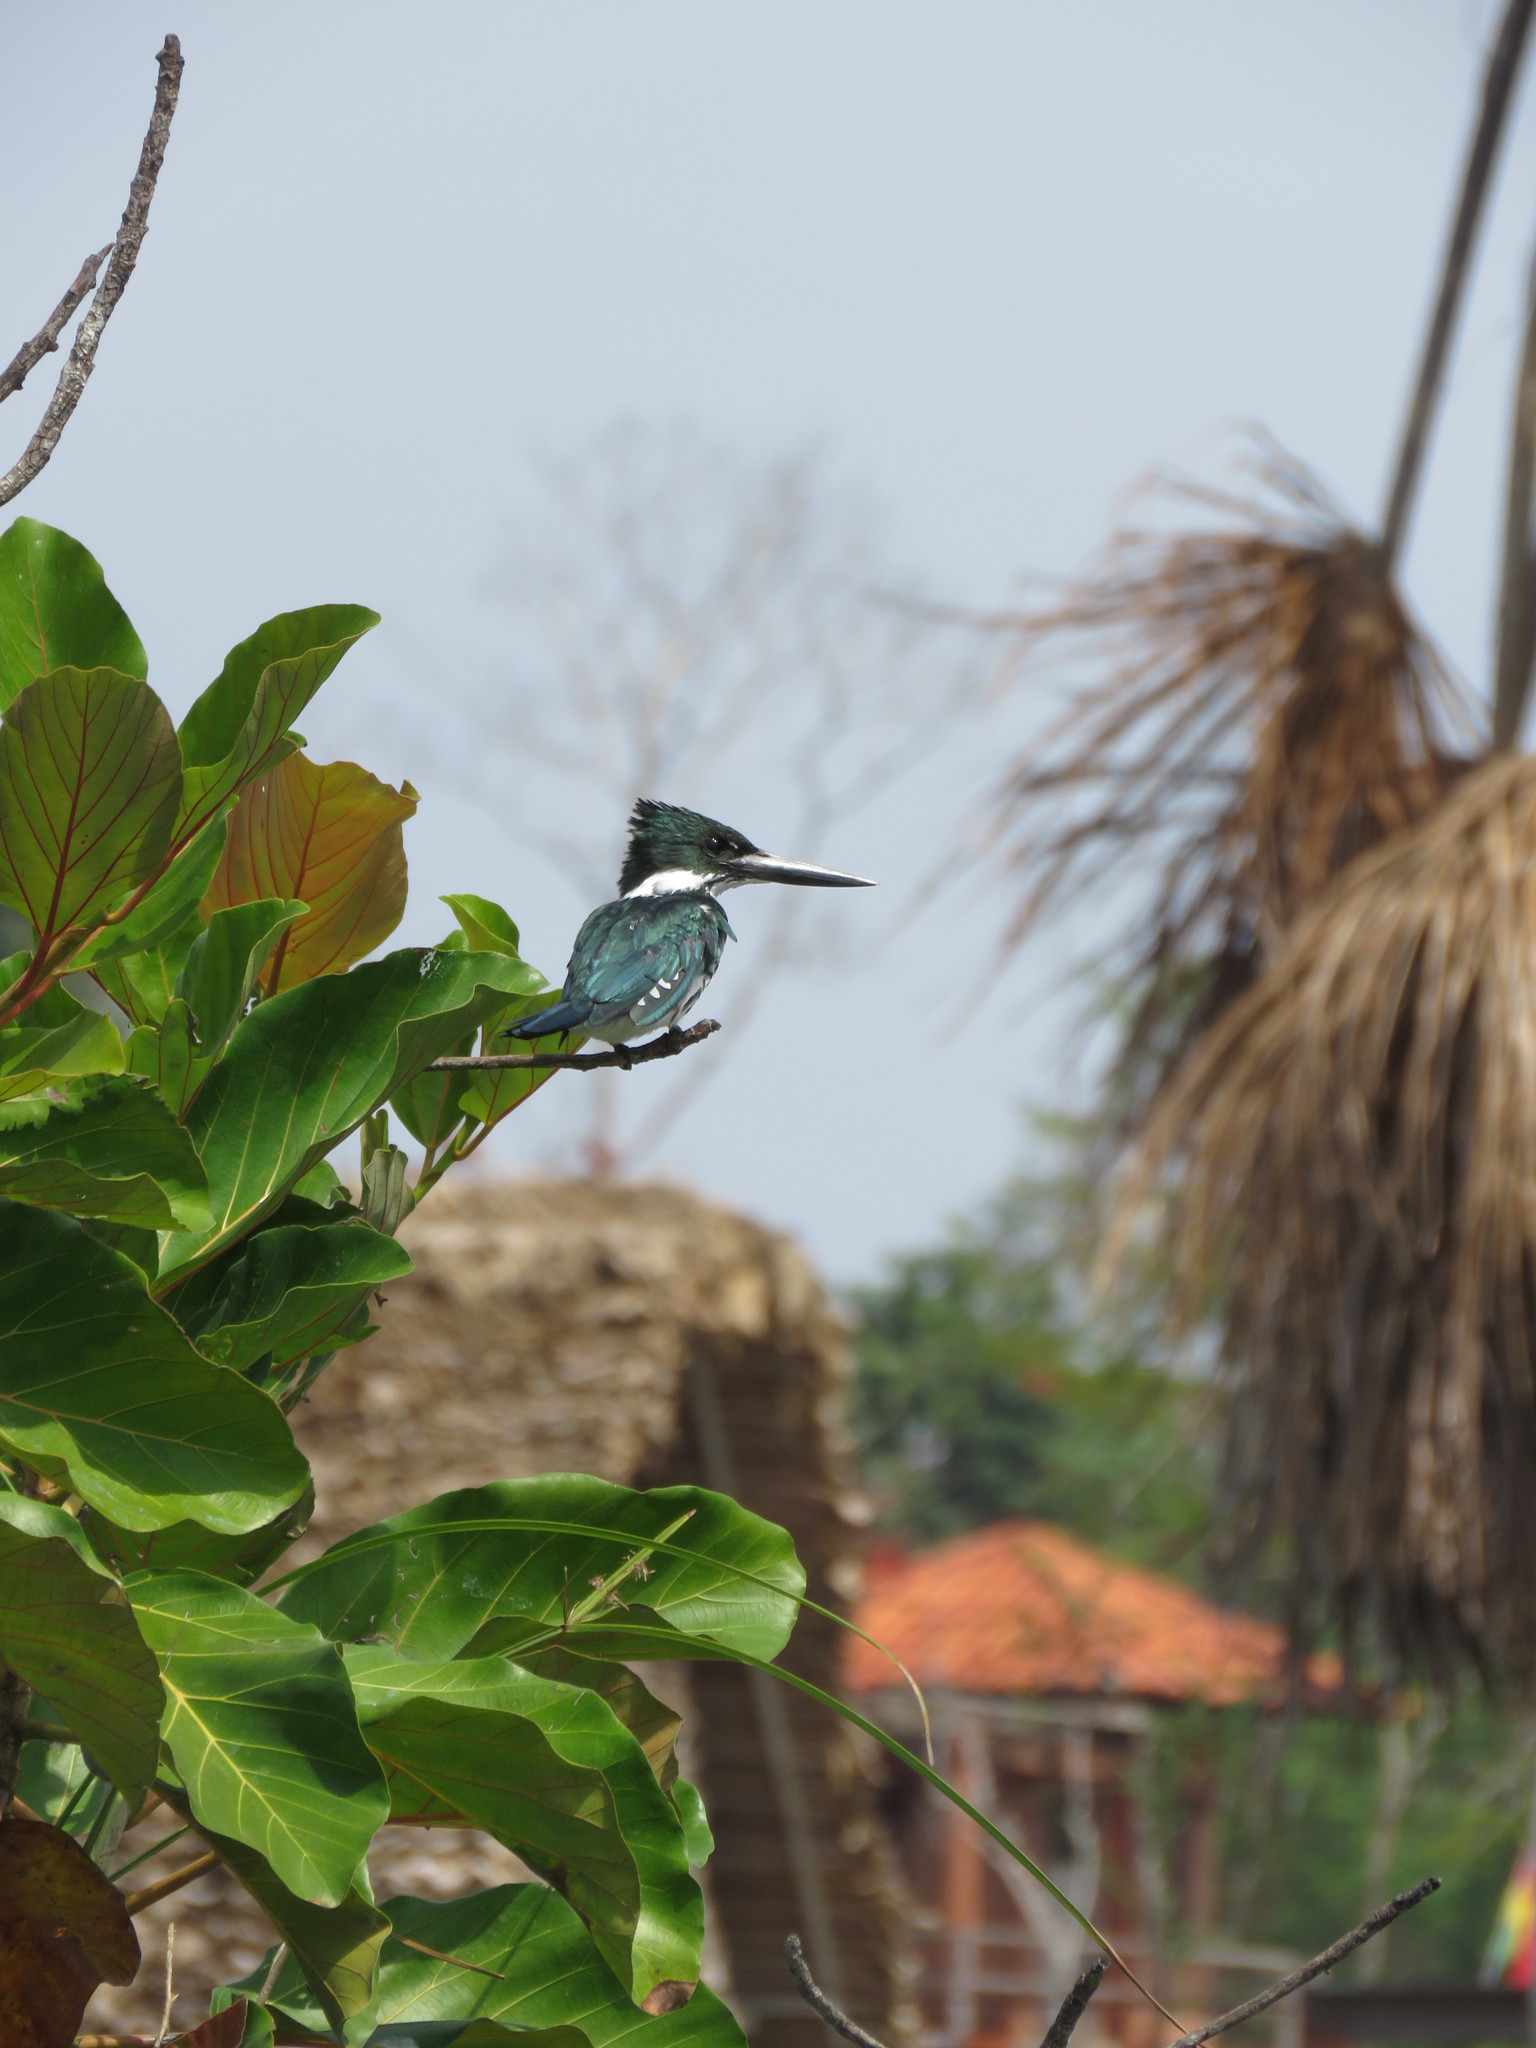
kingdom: Animalia
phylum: Chordata
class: Aves
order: Coraciiformes
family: Alcedinidae
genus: Chloroceryle
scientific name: Chloroceryle amazona
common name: Amazon kingfisher
